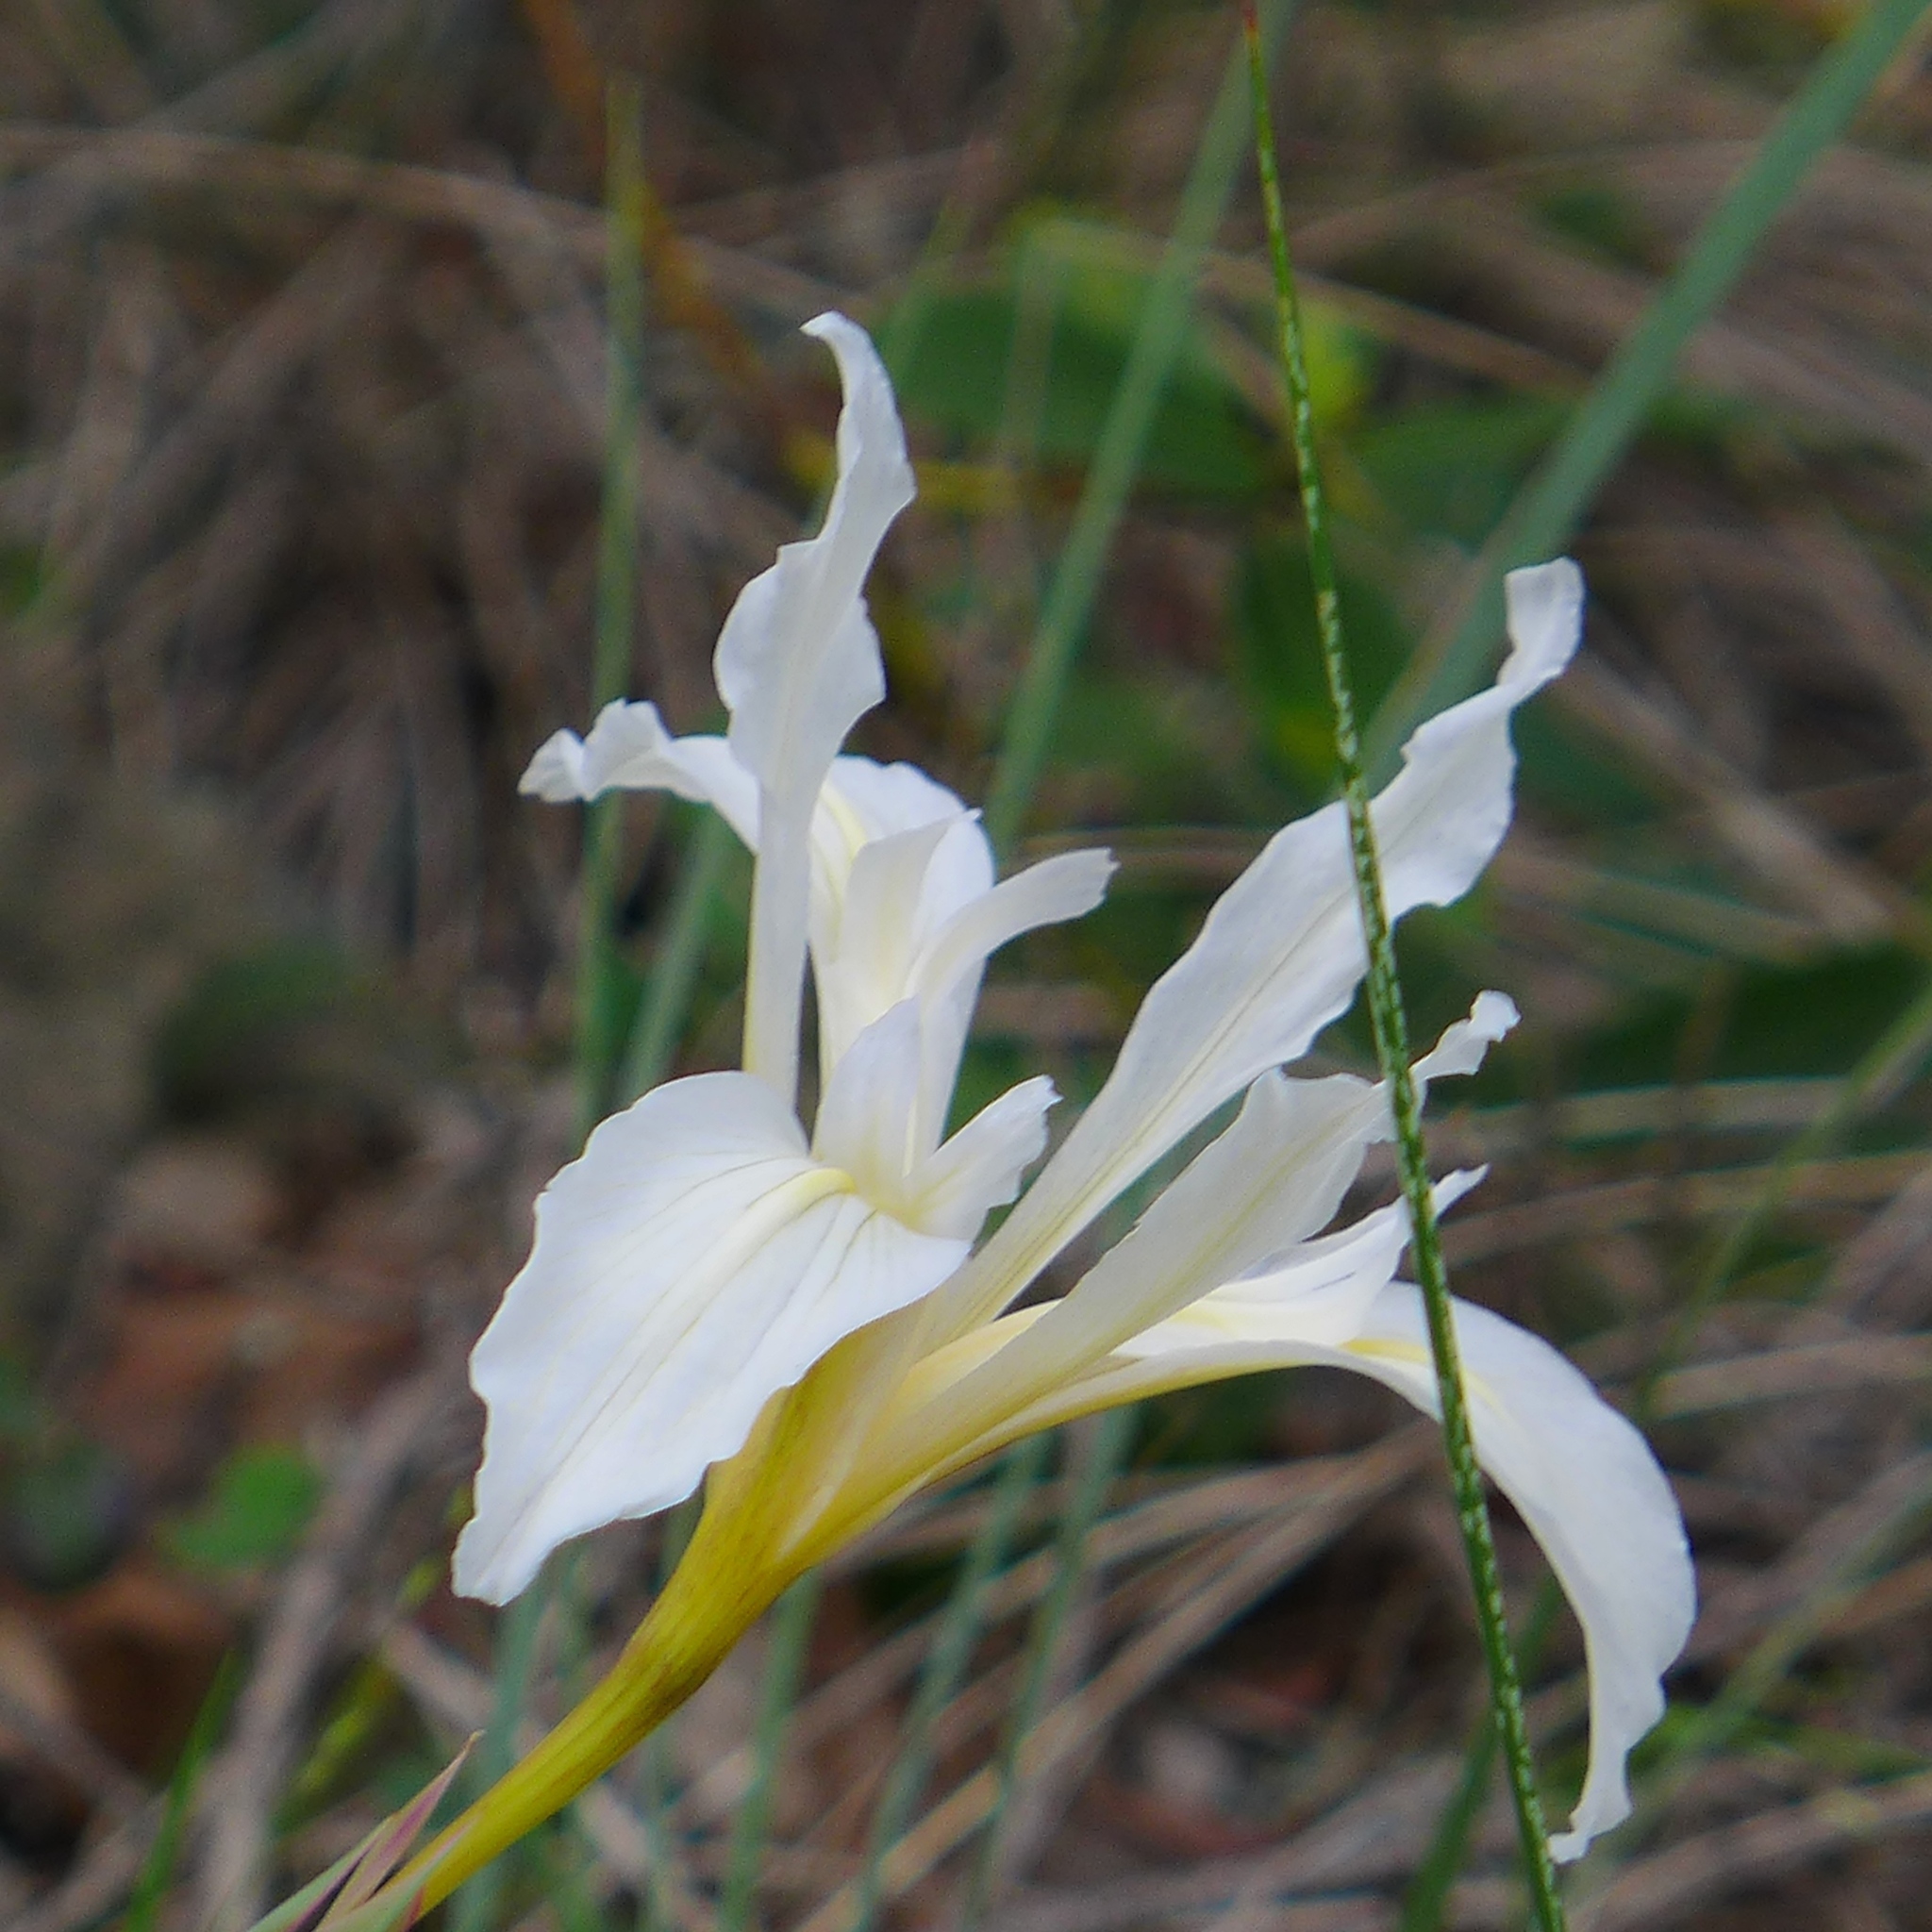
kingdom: Plantae
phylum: Tracheophyta
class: Liliopsida
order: Asparagales
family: Iridaceae
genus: Iris
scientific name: Iris fernaldii
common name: Fernald's iris
